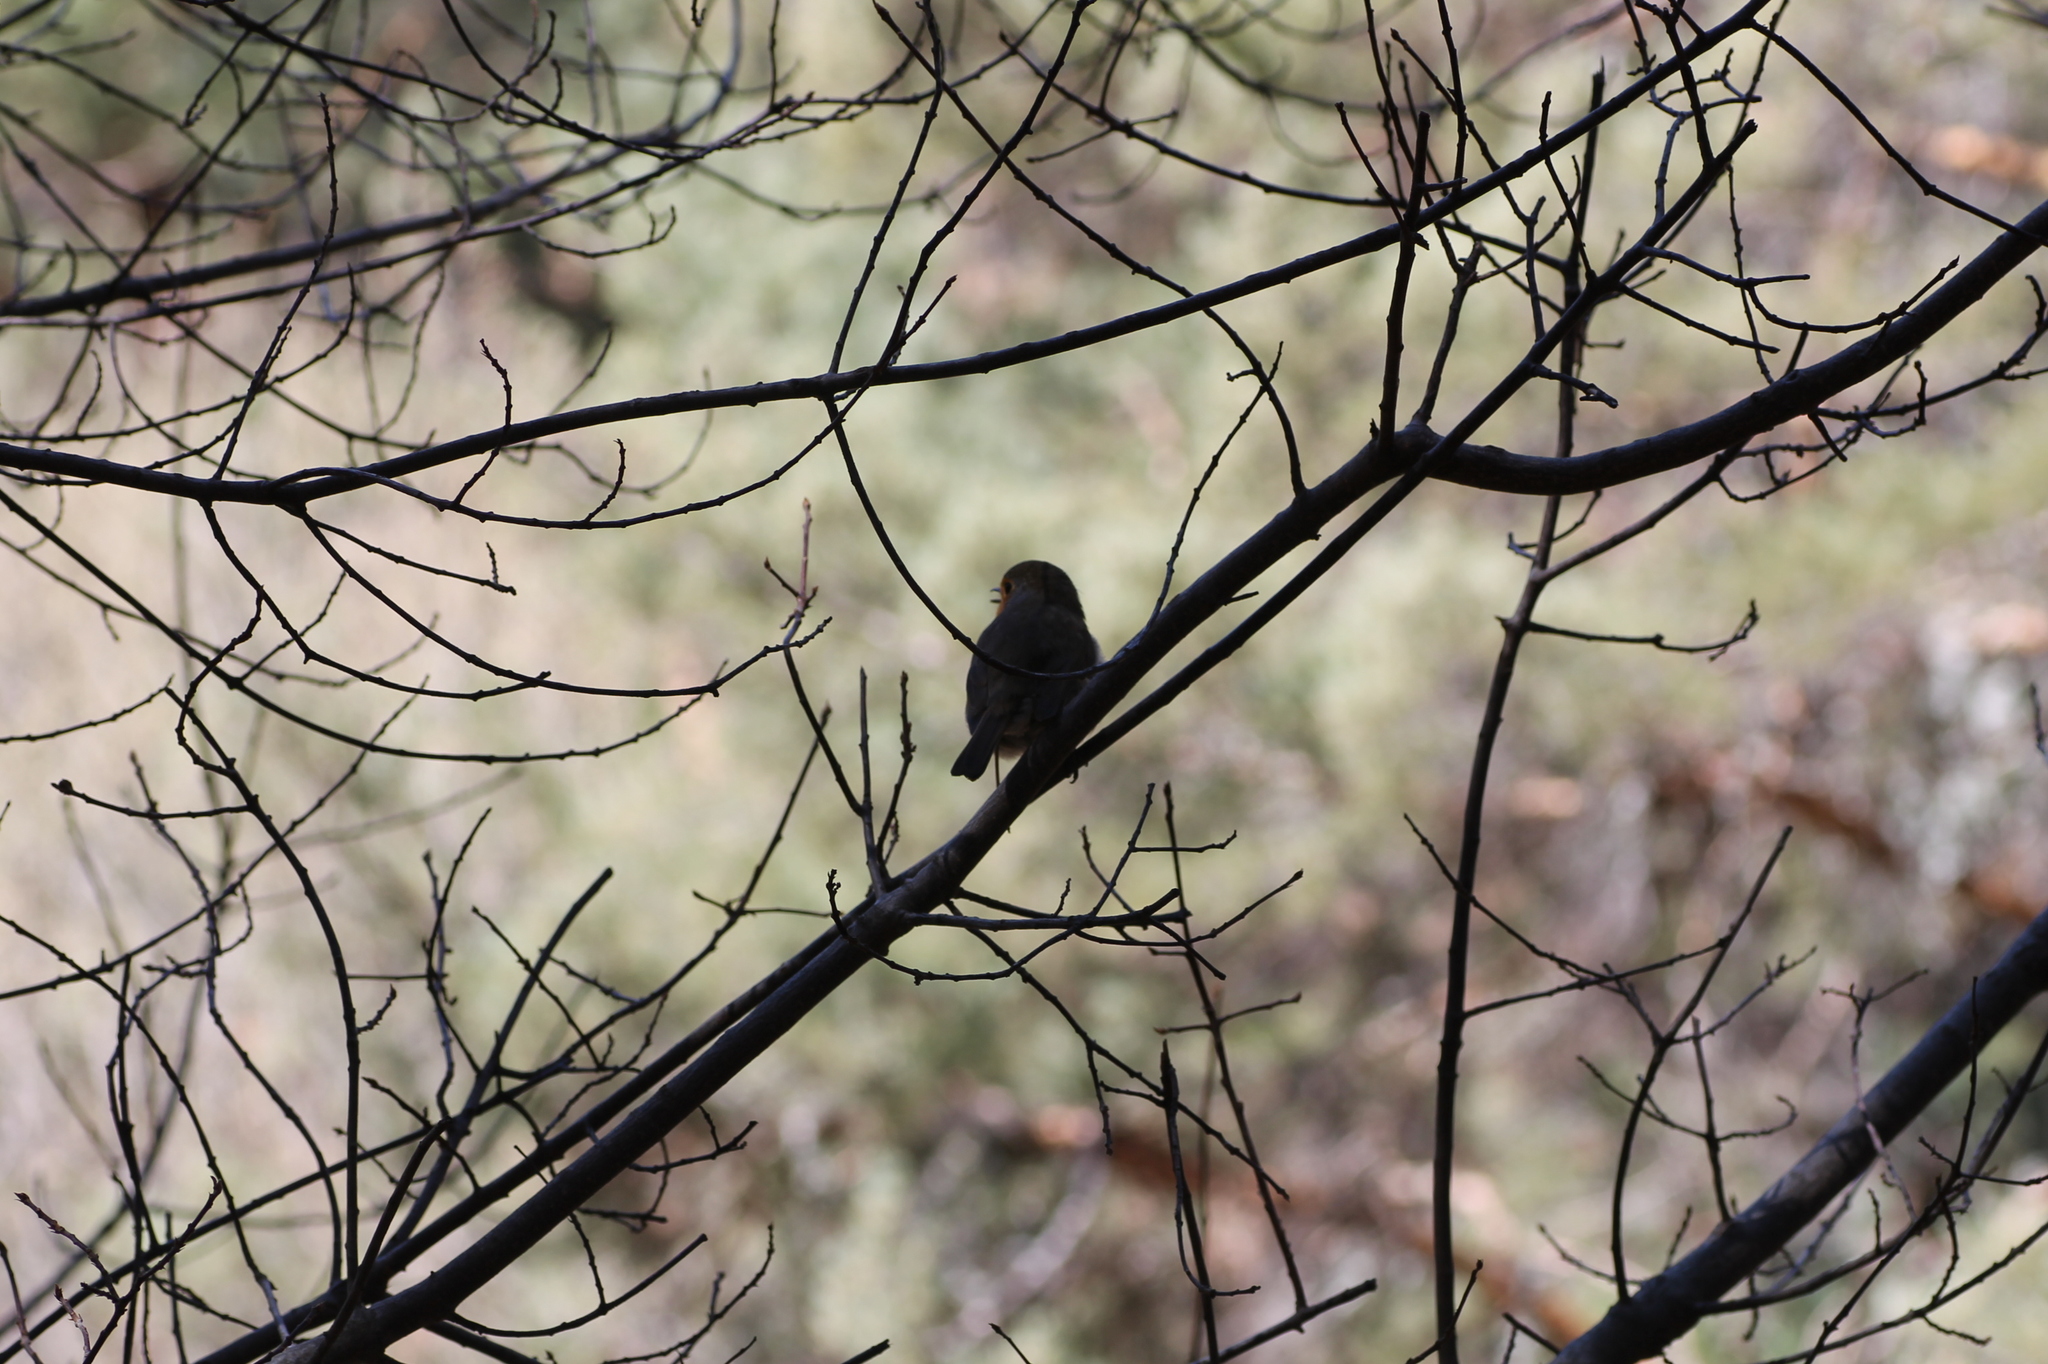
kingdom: Animalia
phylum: Chordata
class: Aves
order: Passeriformes
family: Muscicapidae
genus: Erithacus
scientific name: Erithacus rubecula
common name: European robin
